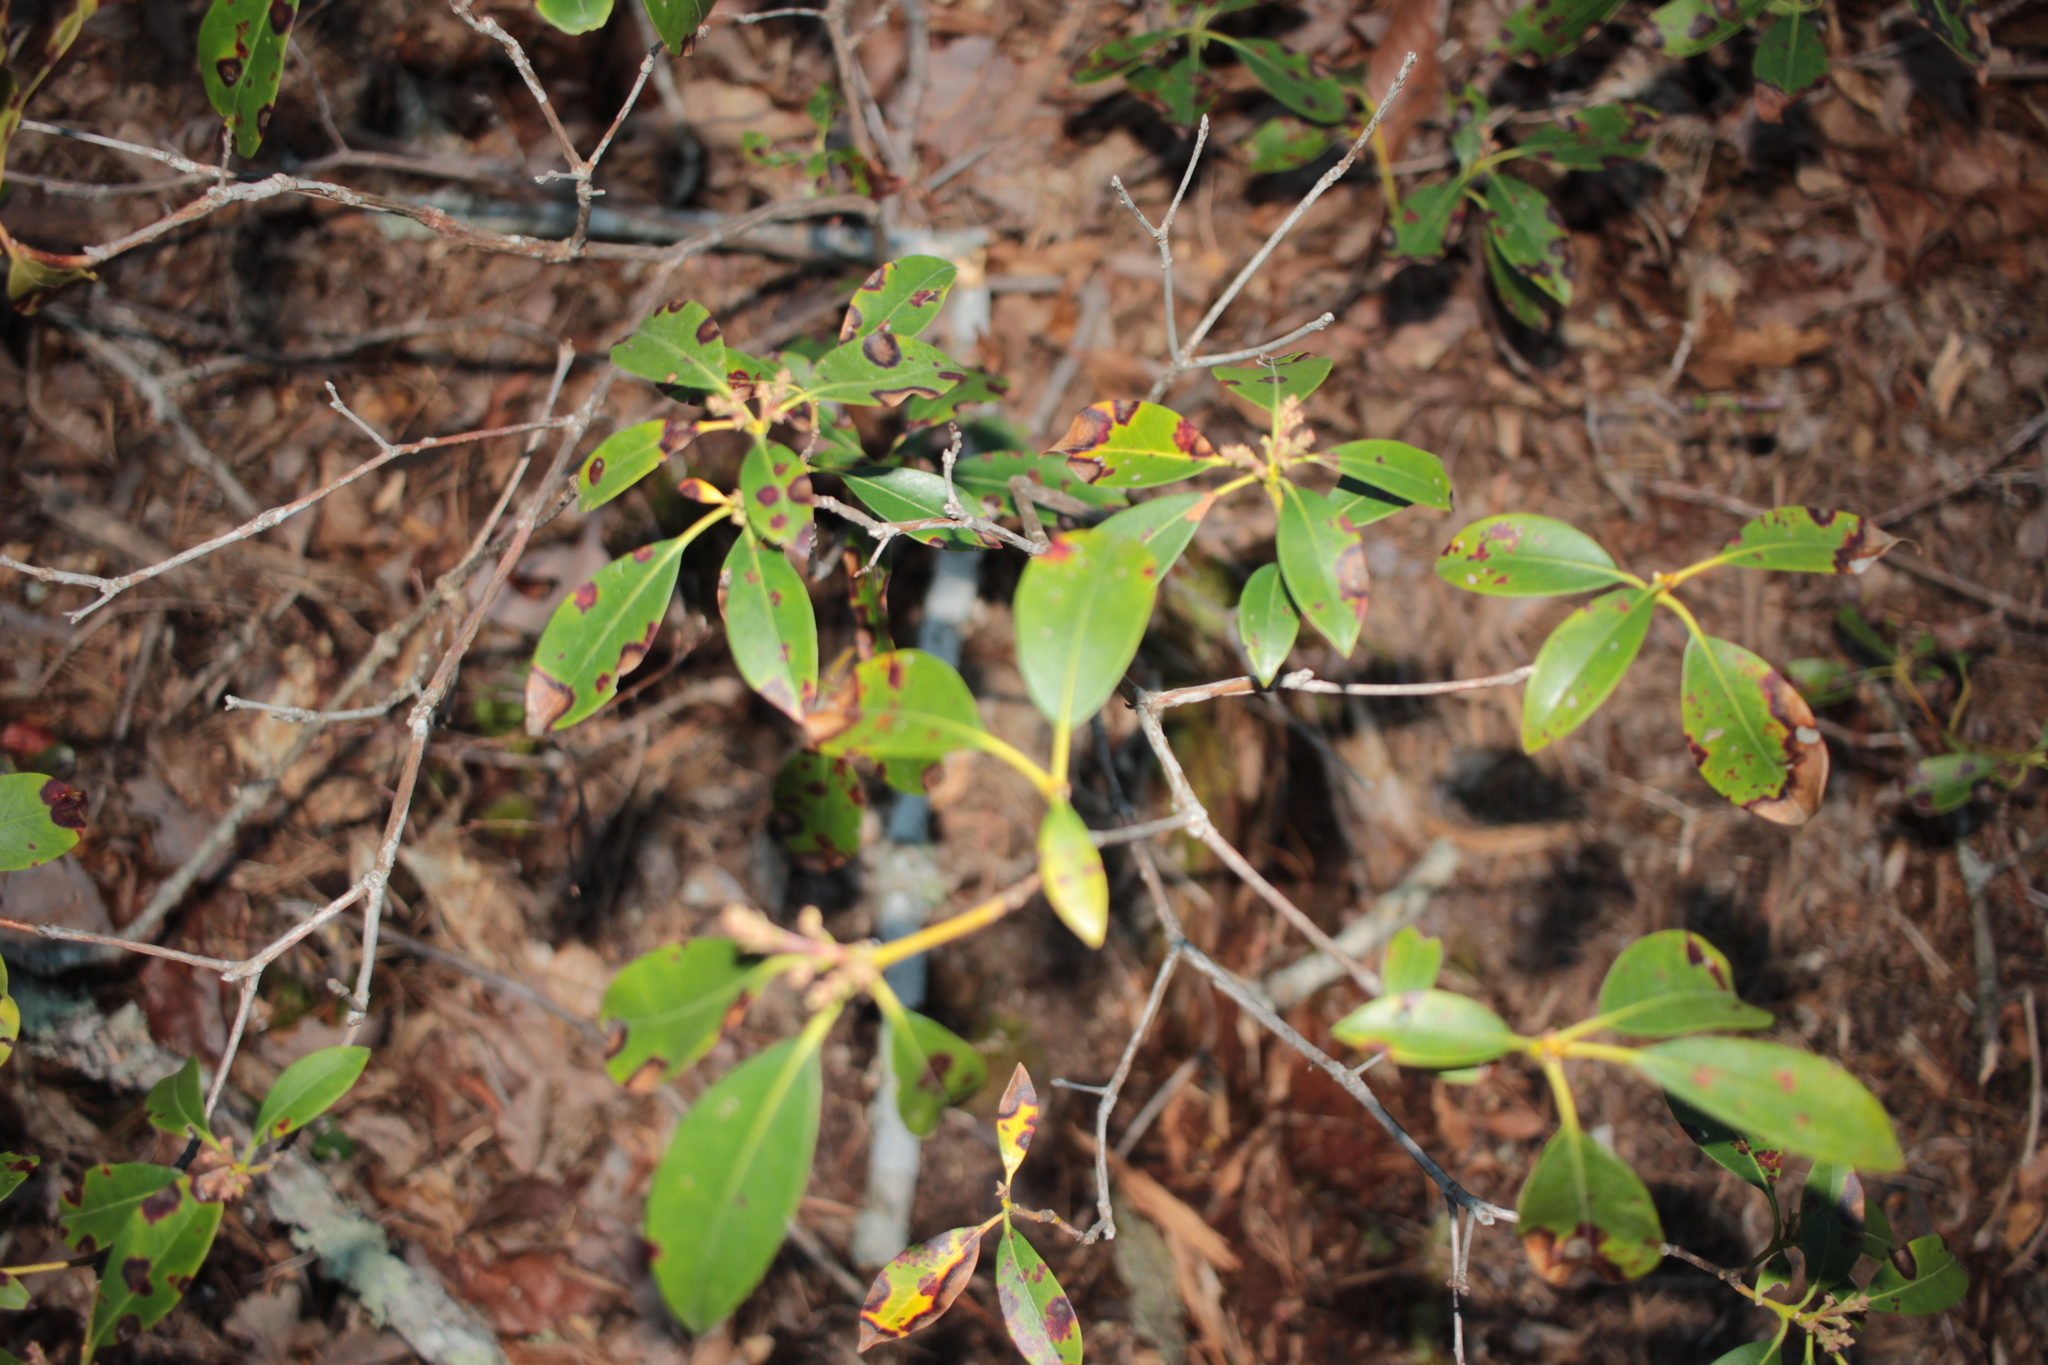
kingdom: Plantae
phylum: Tracheophyta
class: Magnoliopsida
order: Ericales
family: Ericaceae
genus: Kalmia
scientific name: Kalmia latifolia
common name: Mountain-laurel
